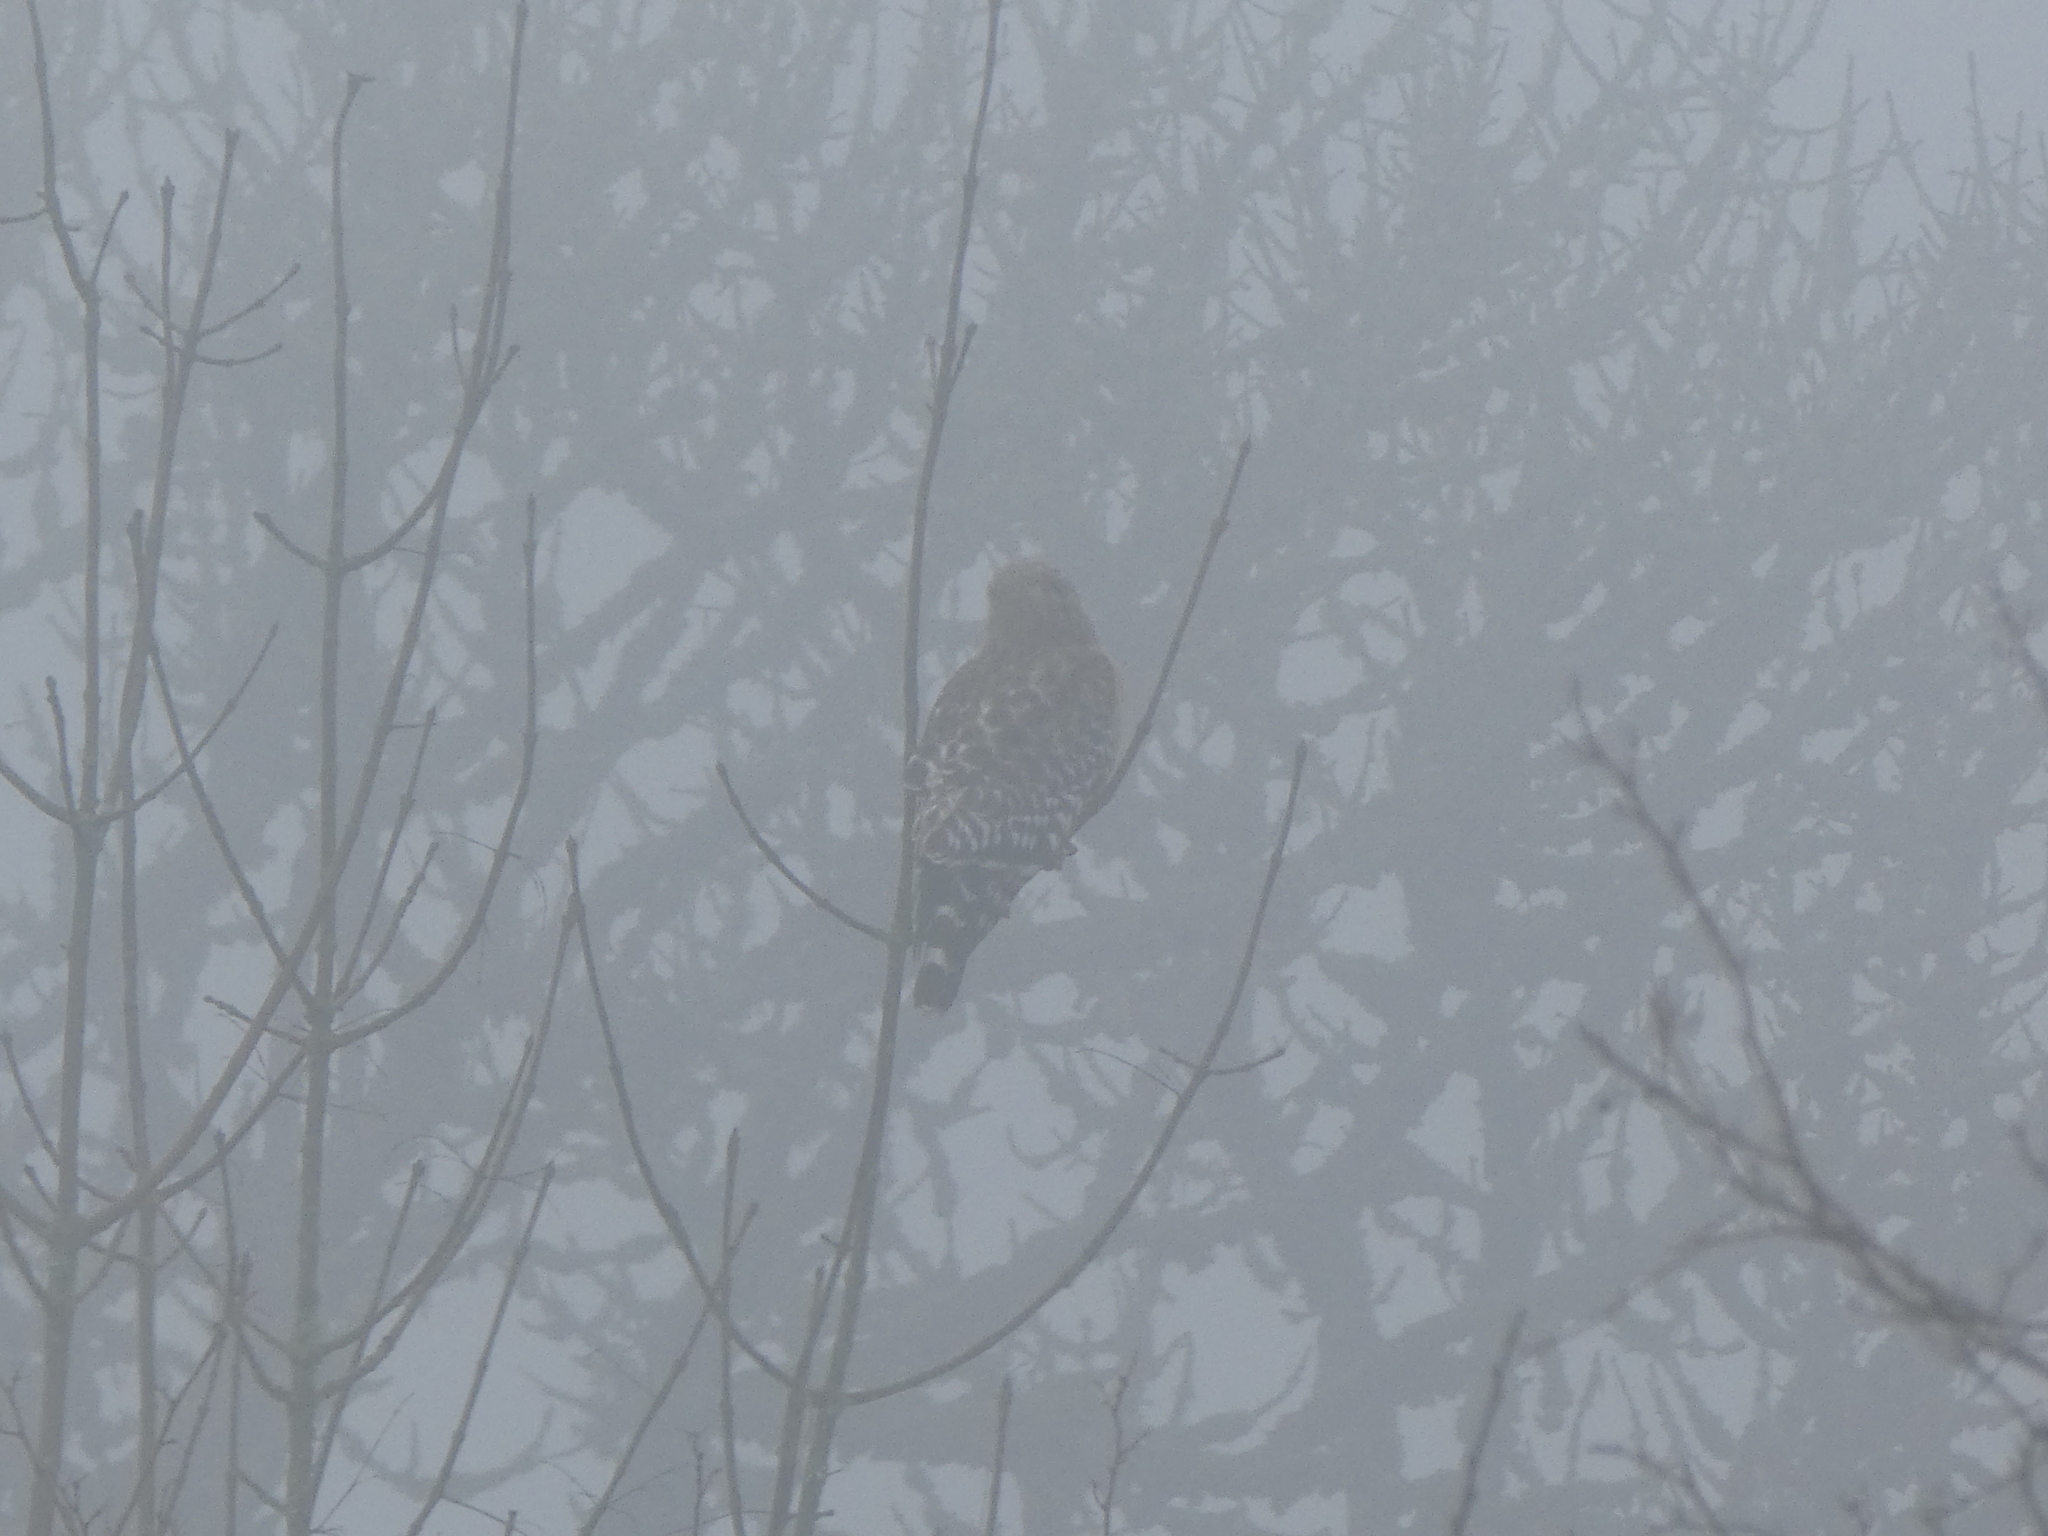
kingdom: Animalia
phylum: Chordata
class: Aves
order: Accipitriformes
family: Accipitridae
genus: Buteo
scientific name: Buteo lineatus
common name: Red-shouldered hawk
